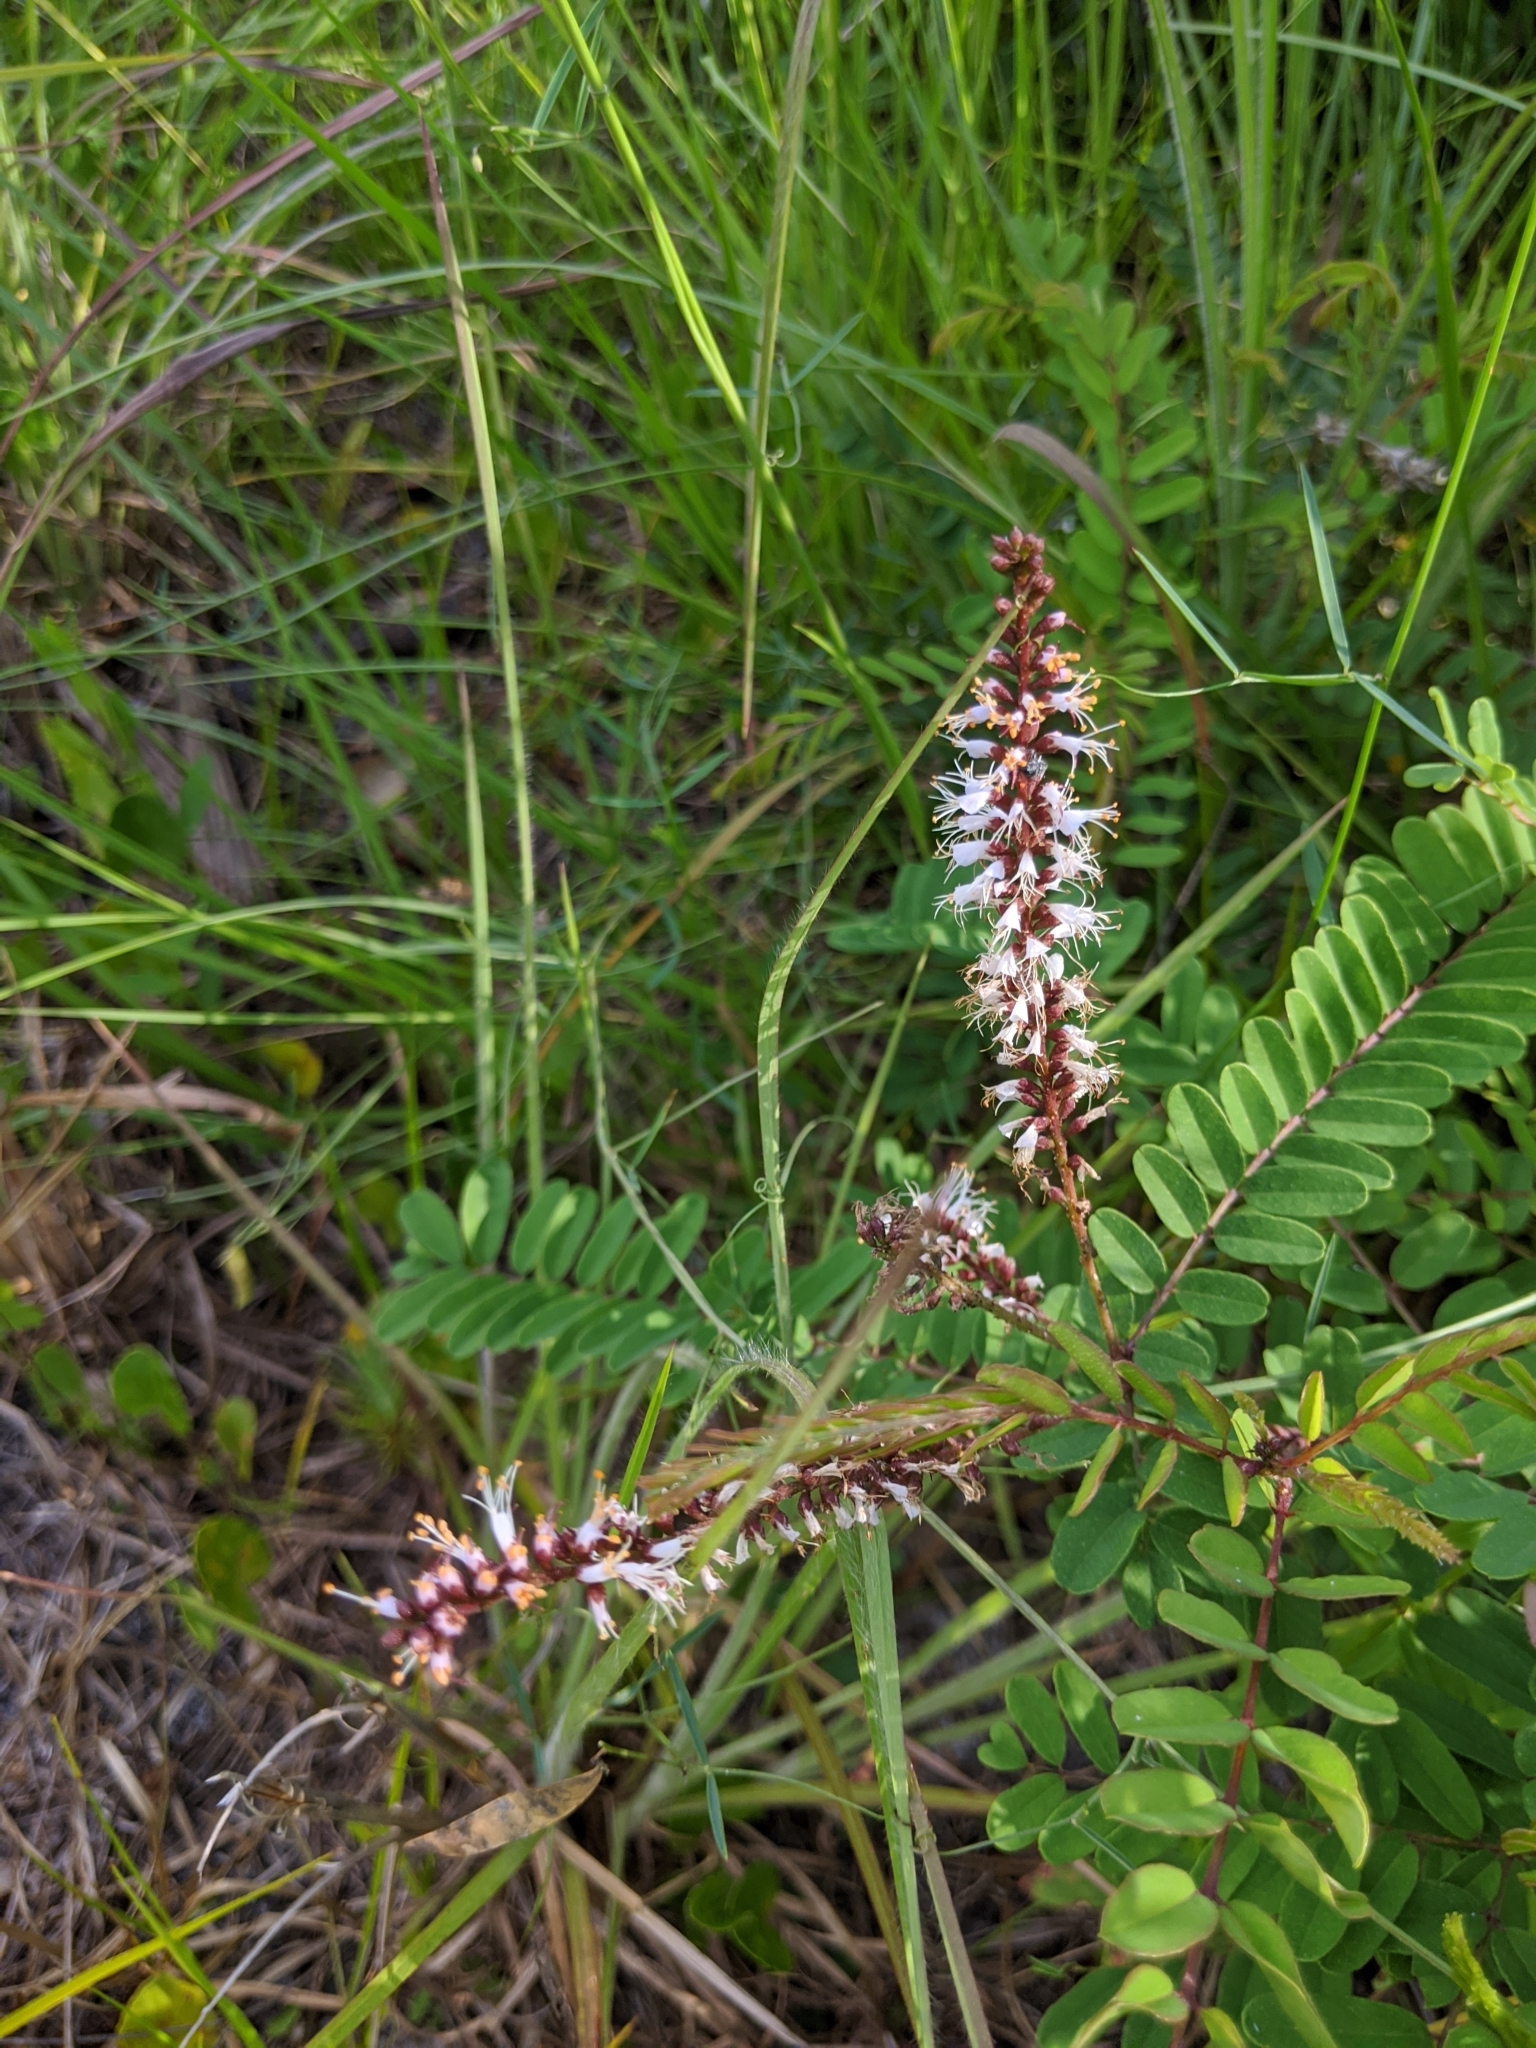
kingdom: Plantae
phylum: Tracheophyta
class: Magnoliopsida
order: Fabales
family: Fabaceae
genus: Amorpha
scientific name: Amorpha herbacea
